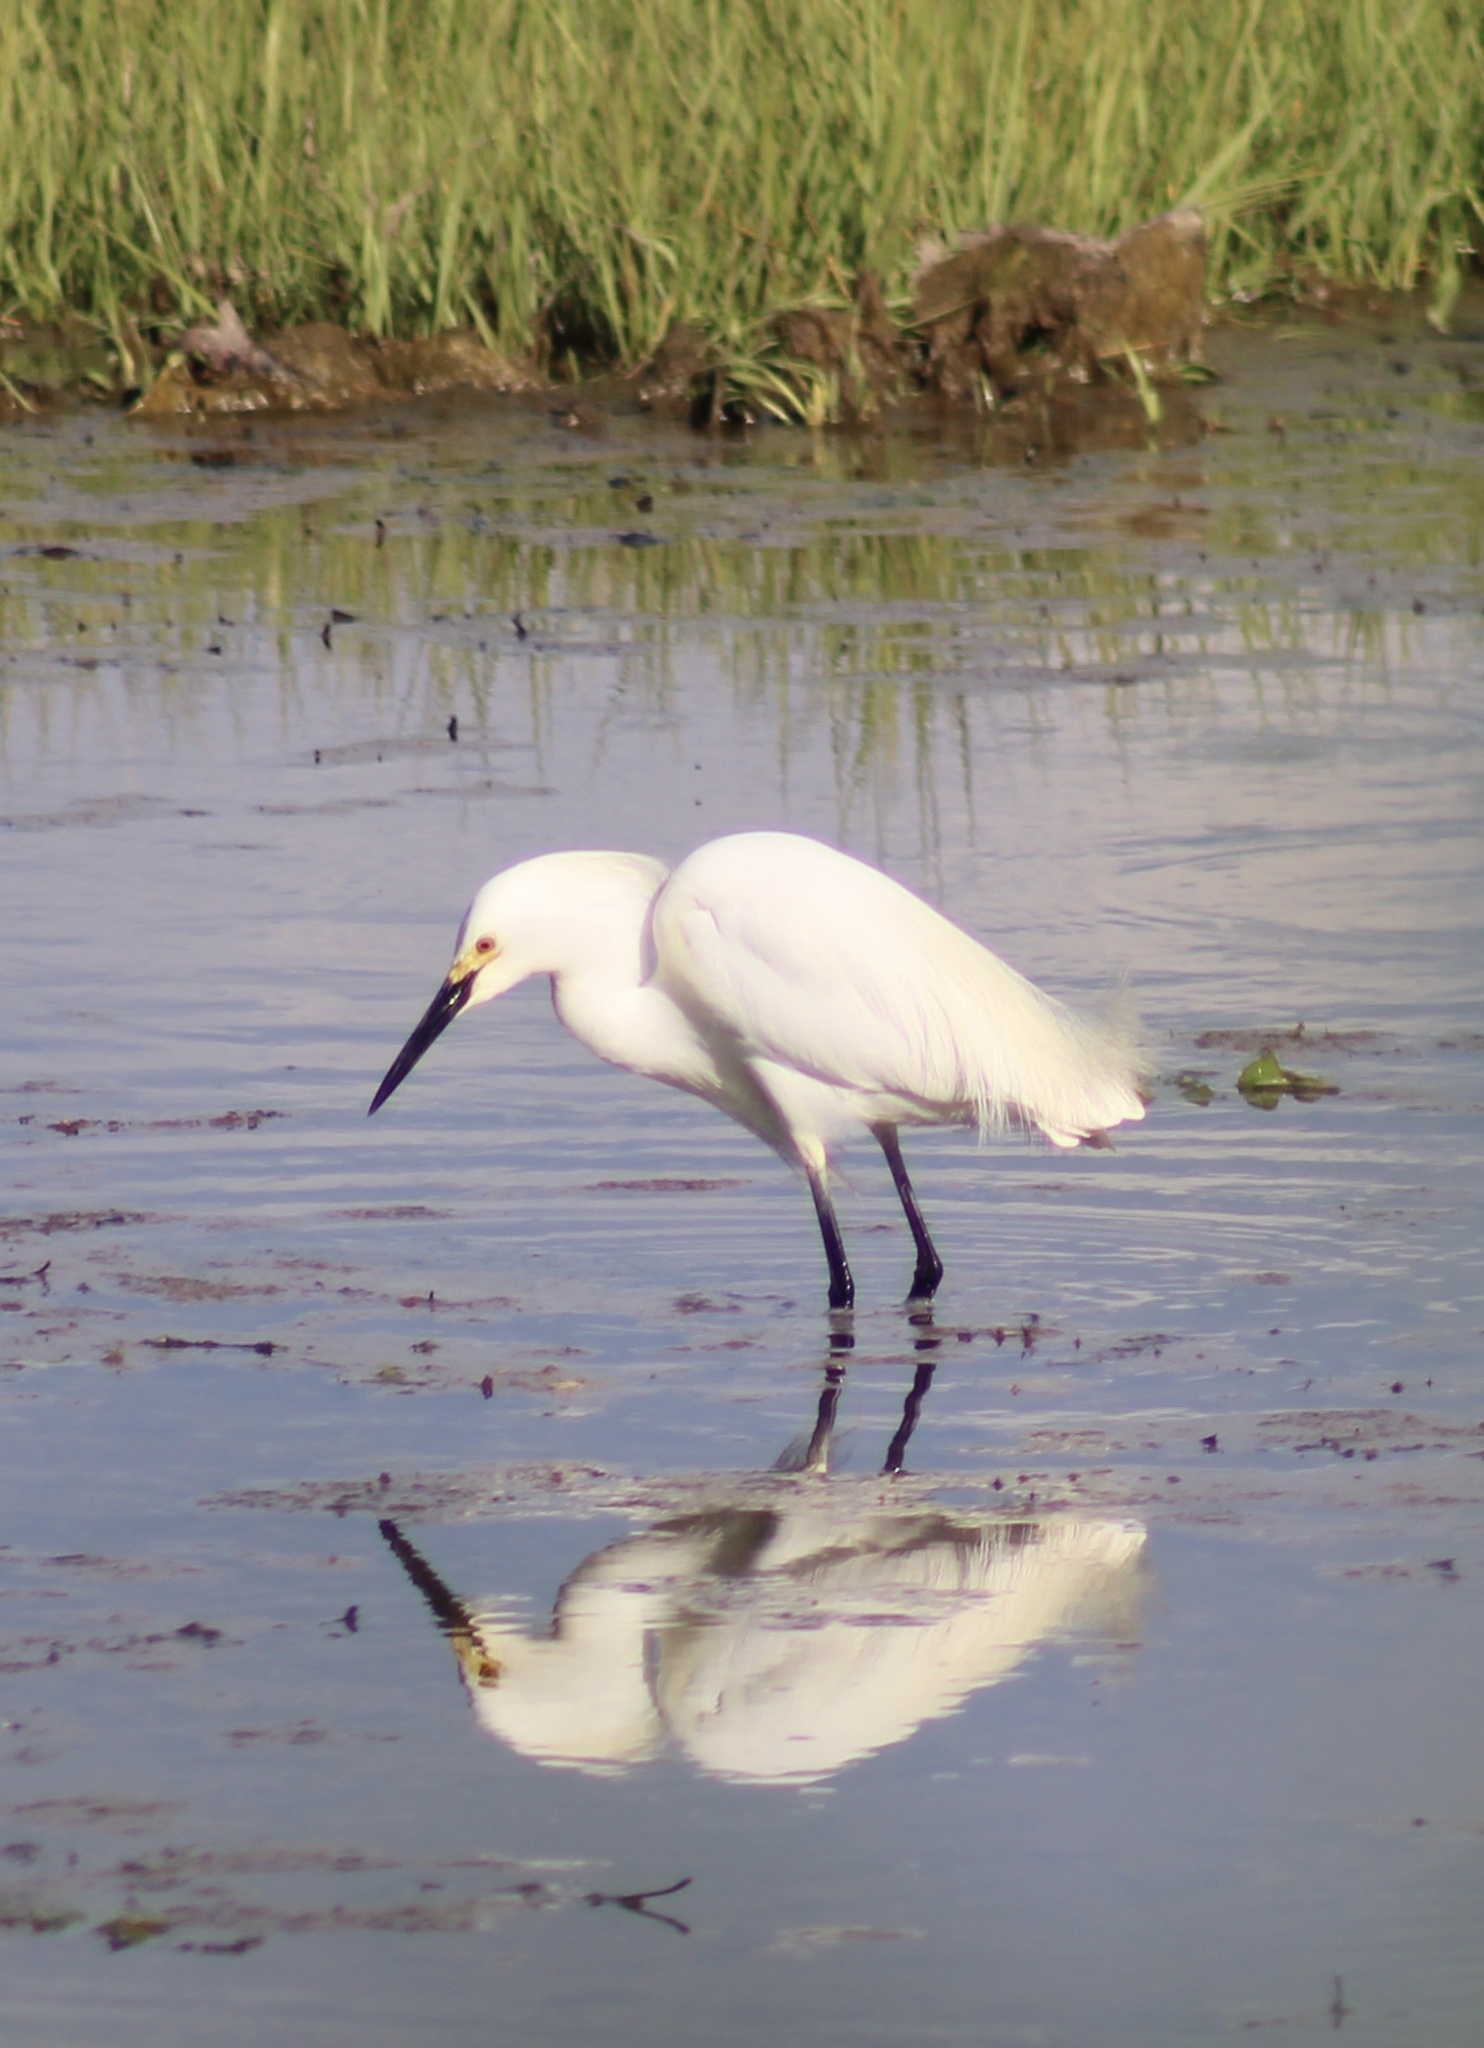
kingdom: Animalia
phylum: Chordata
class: Aves
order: Pelecaniformes
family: Ardeidae
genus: Egretta
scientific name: Egretta thula
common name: Snowy egret
